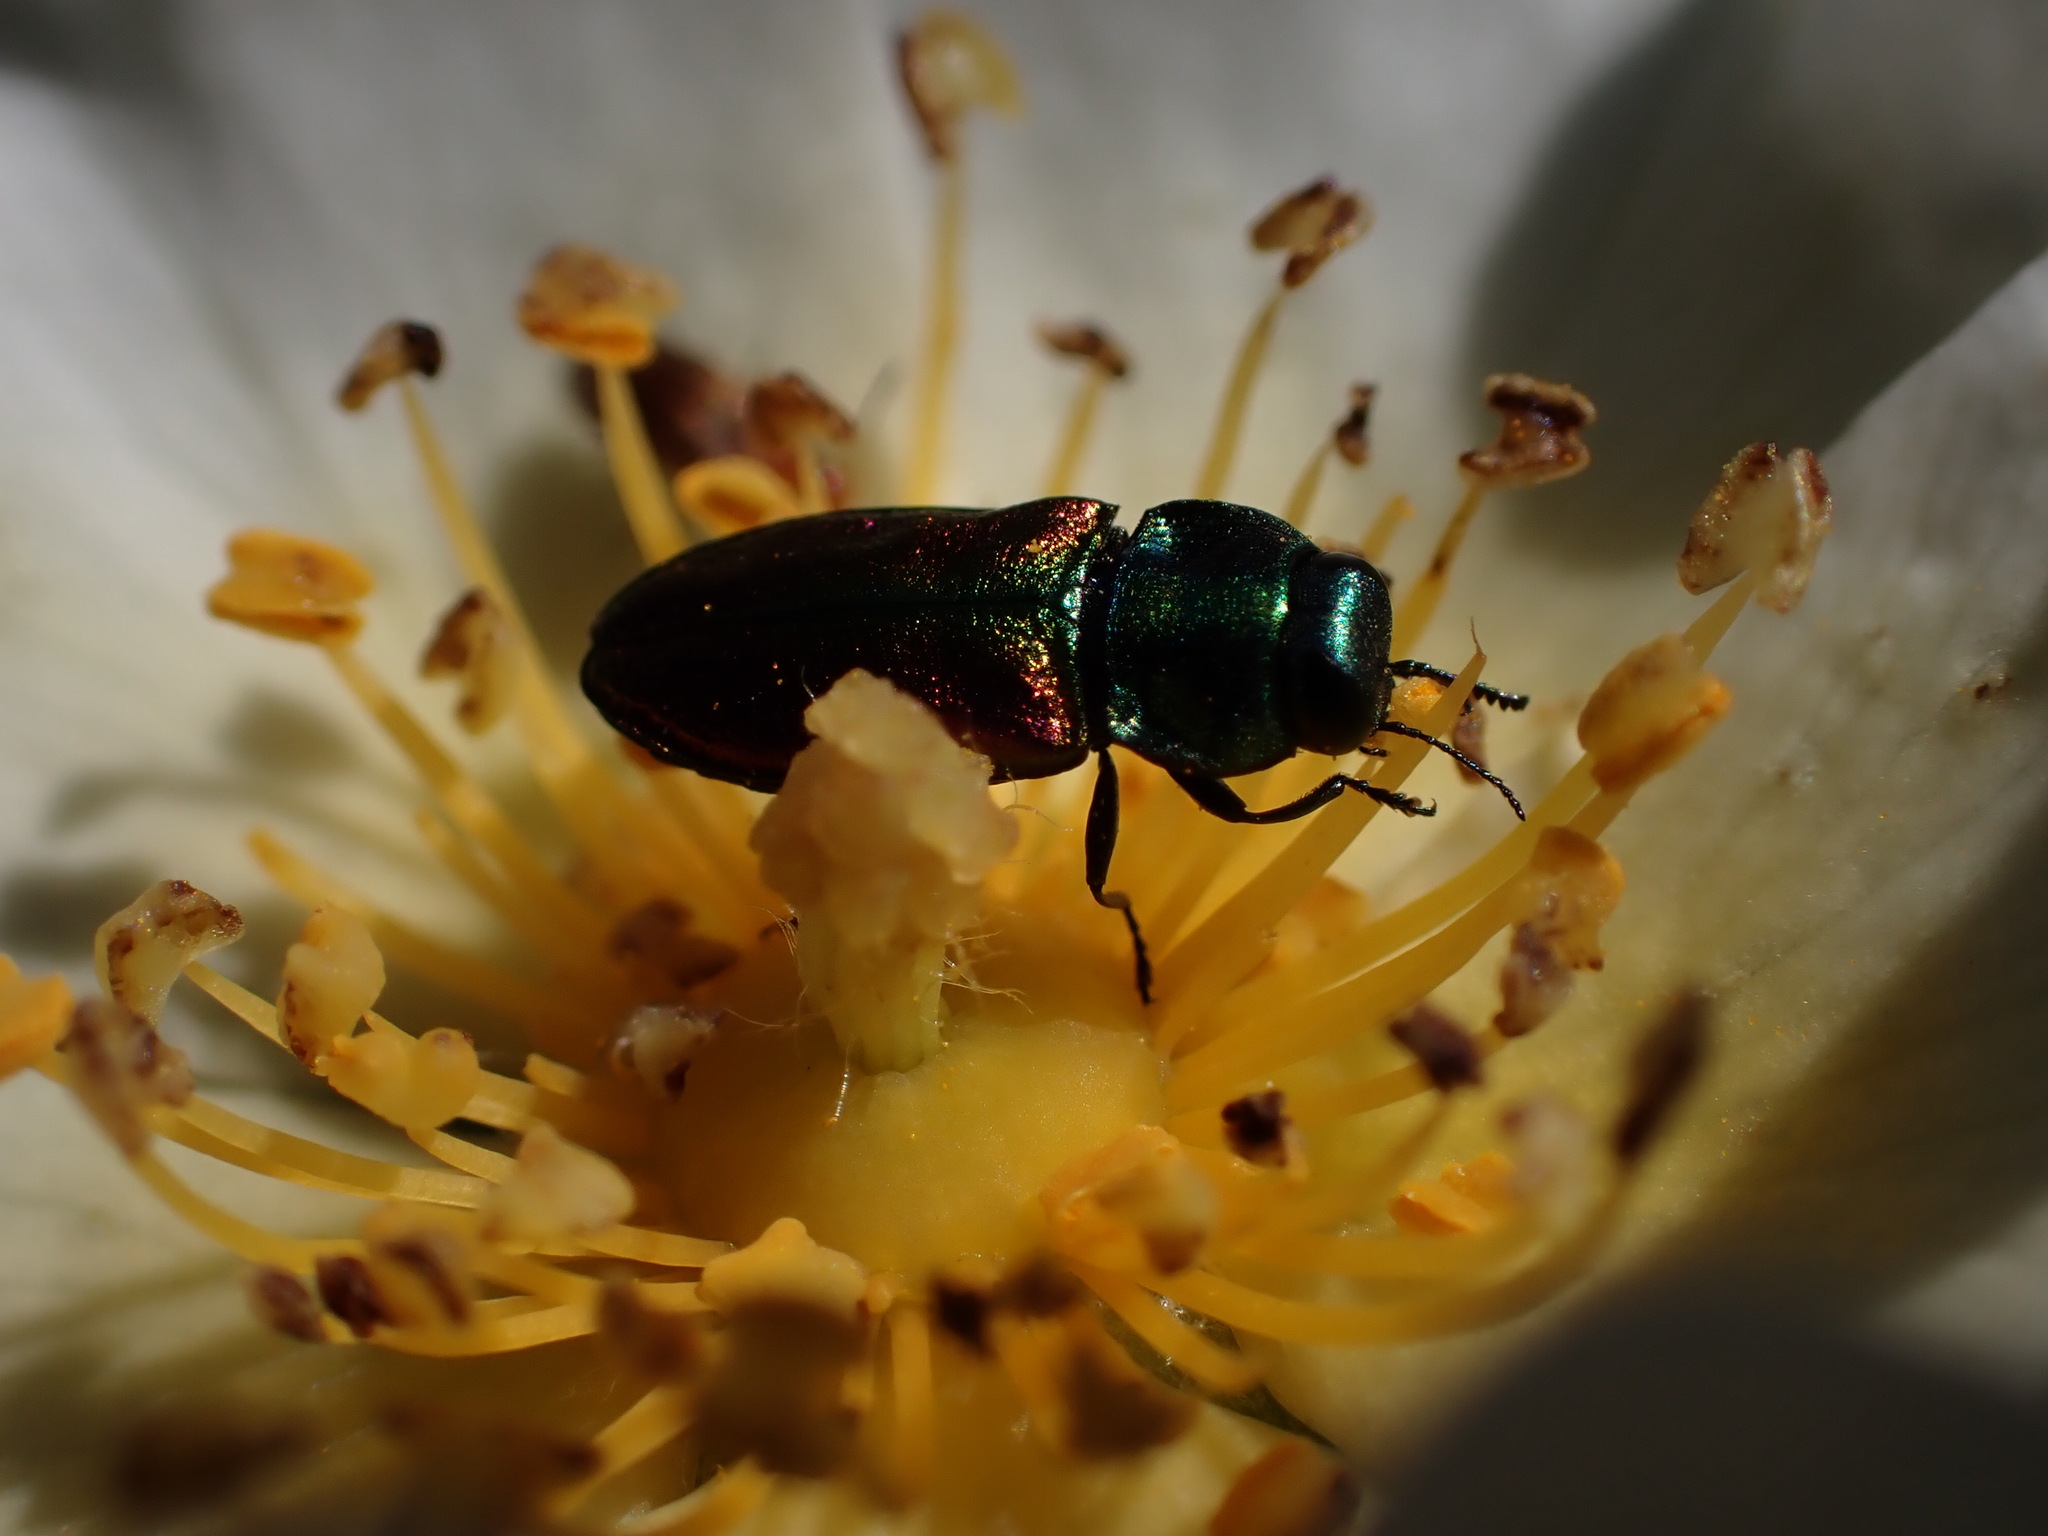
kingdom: Animalia
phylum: Arthropoda
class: Insecta
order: Coleoptera
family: Buprestidae
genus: Anthaxia
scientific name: Anthaxia fulgurans
